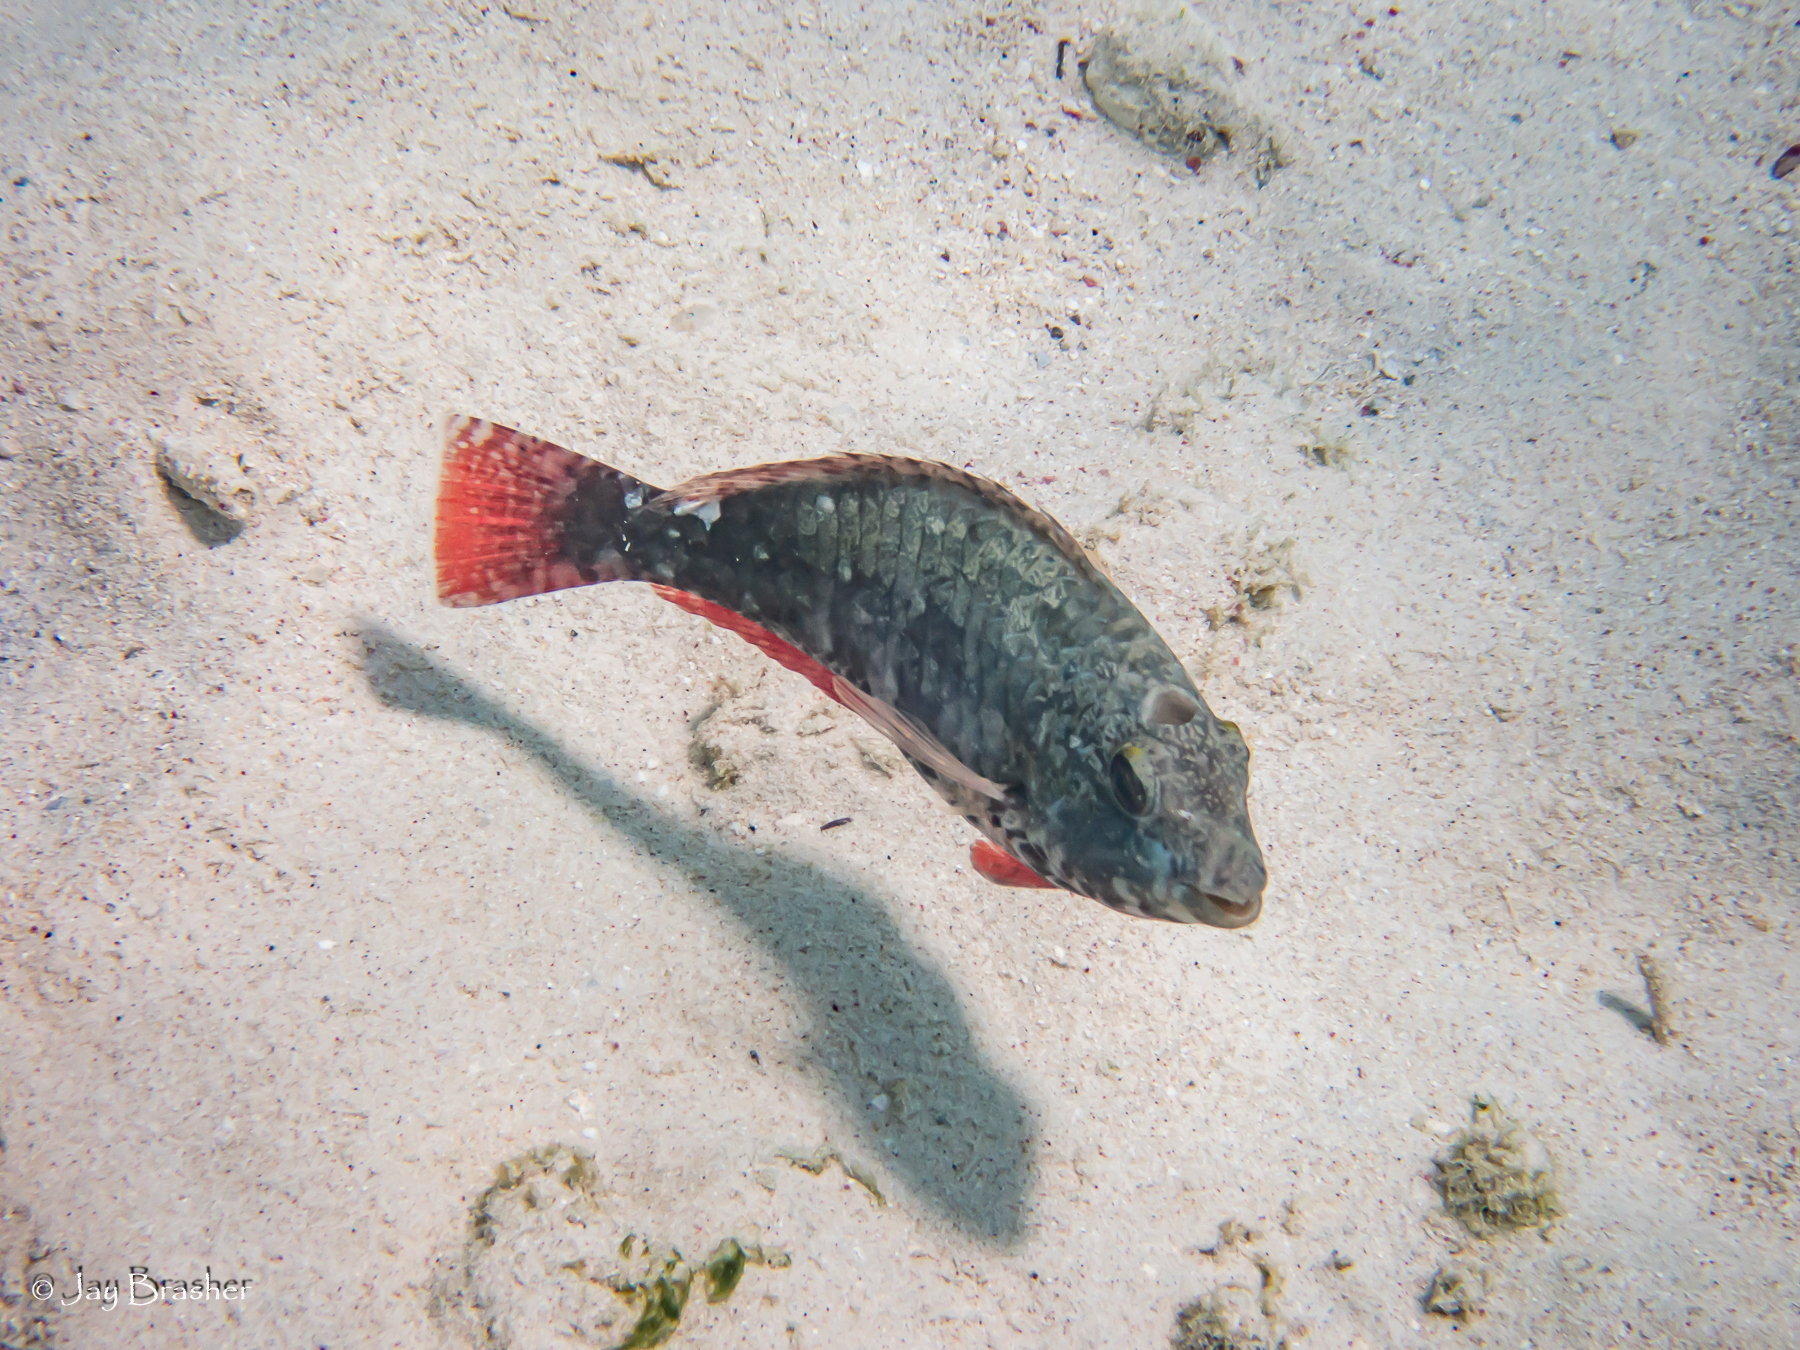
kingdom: Animalia
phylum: Chordata
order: Perciformes
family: Scaridae
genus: Sparisoma
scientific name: Sparisoma aurofrenatum
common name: Redband parrotfish
